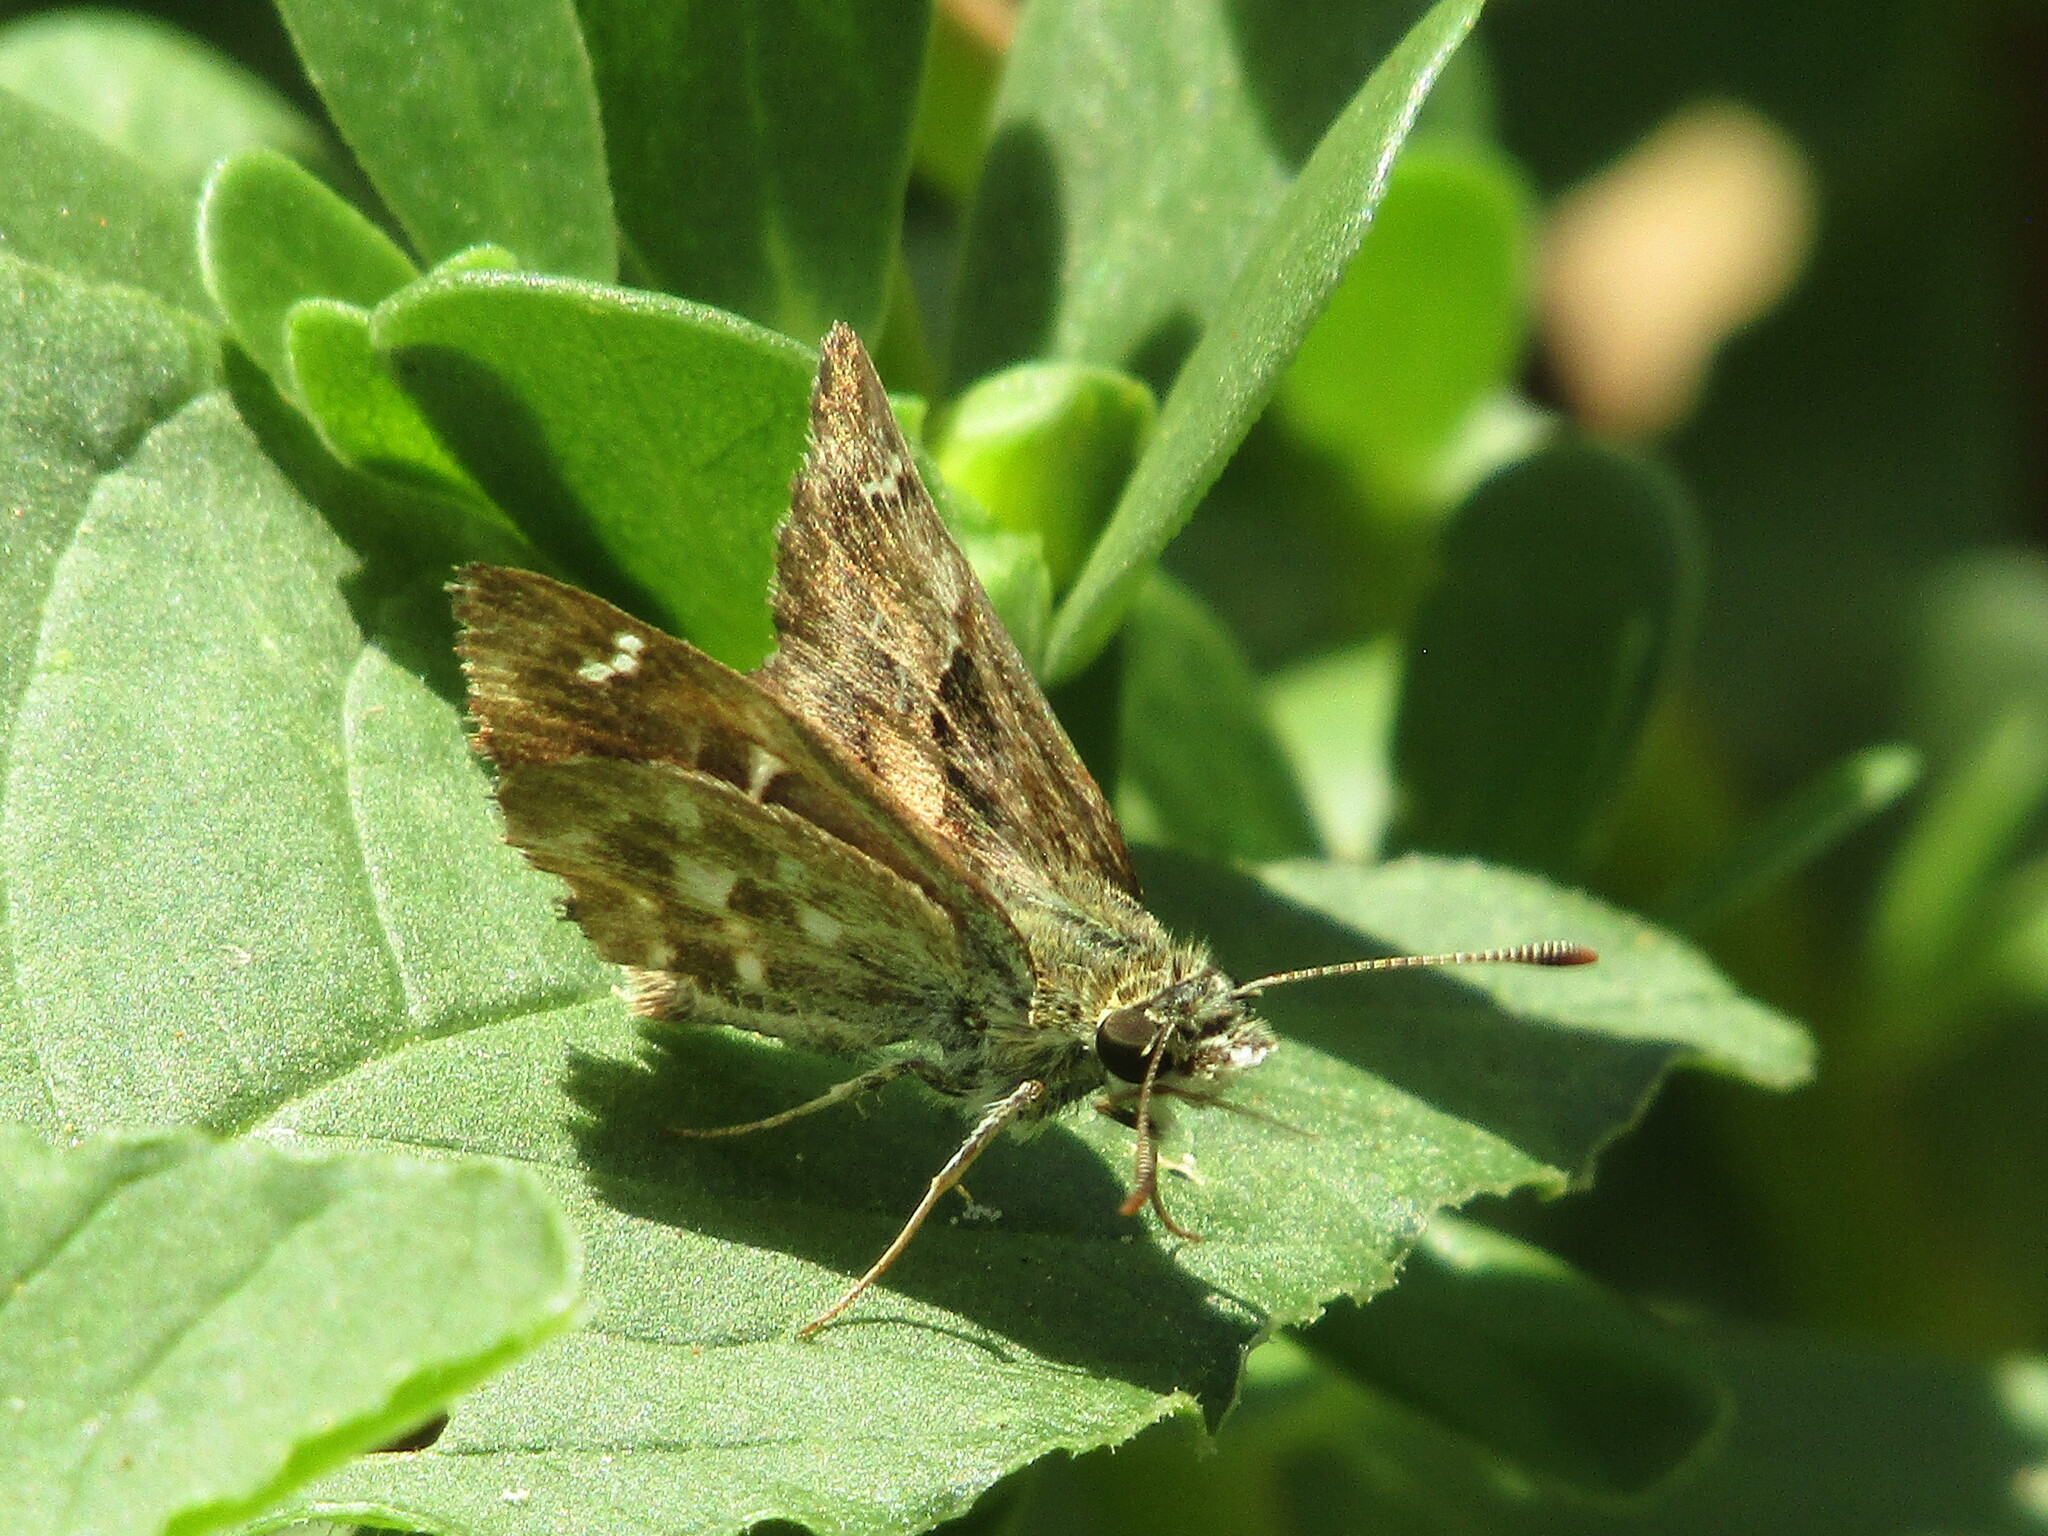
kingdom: Animalia
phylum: Arthropoda
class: Insecta
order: Lepidoptera
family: Hesperiidae
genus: Carcharodus
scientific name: Carcharodus alceae
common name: Mallow skipper
